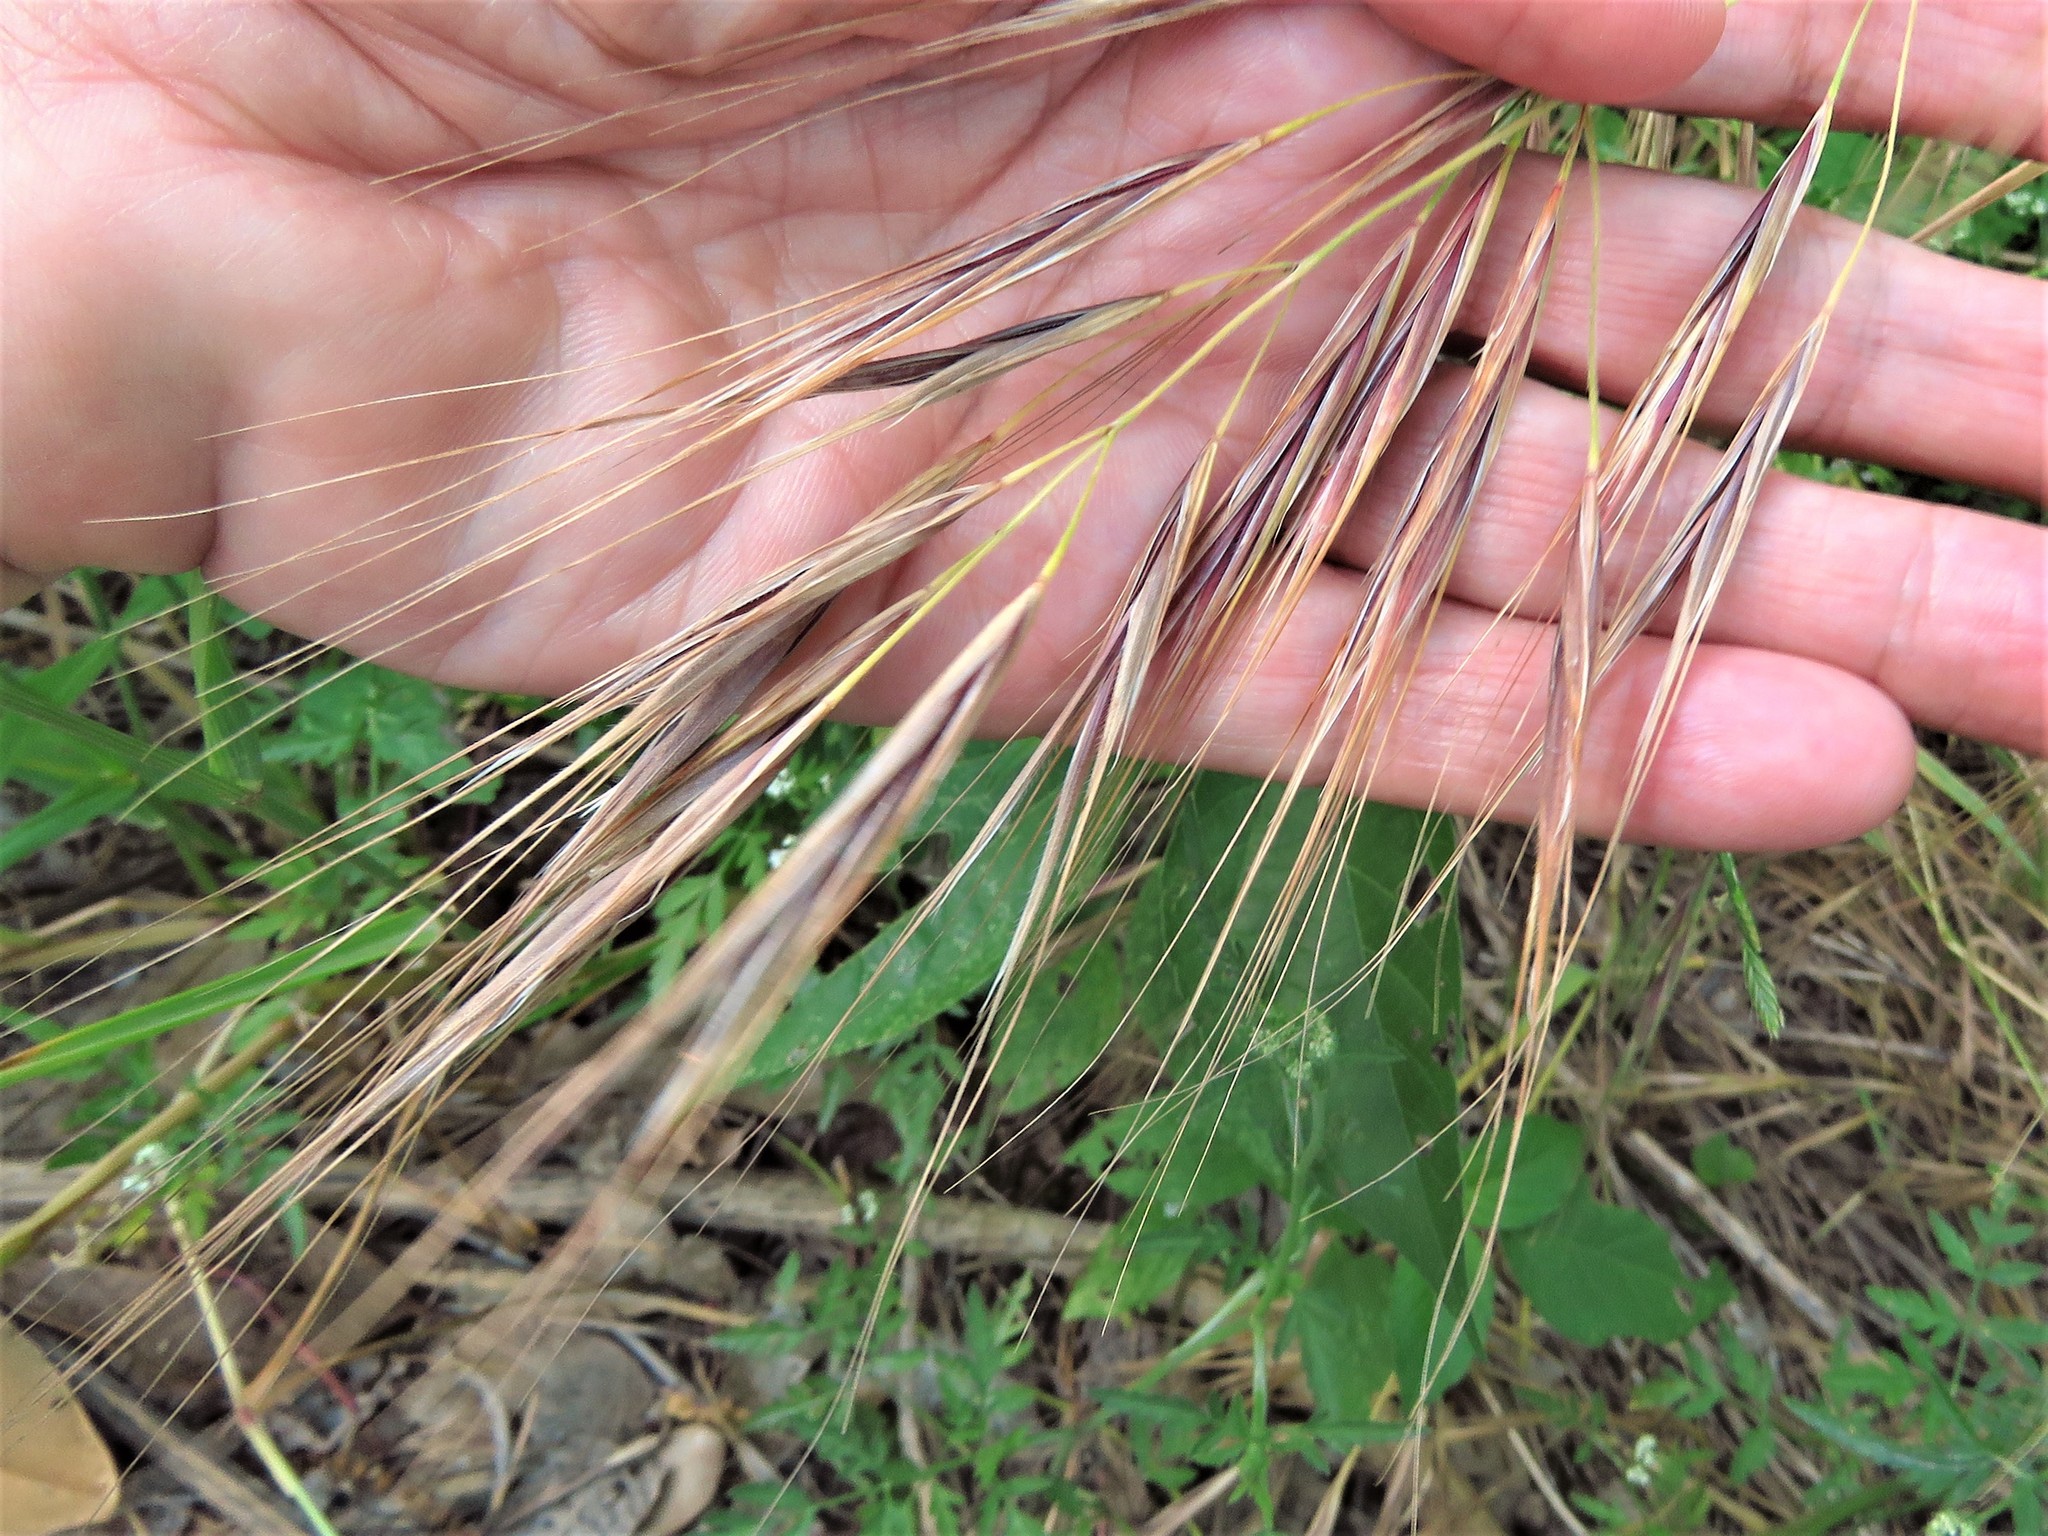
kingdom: Plantae
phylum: Tracheophyta
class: Liliopsida
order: Poales
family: Poaceae
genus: Bromus
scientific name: Bromus diandrus
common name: Ripgut brome
